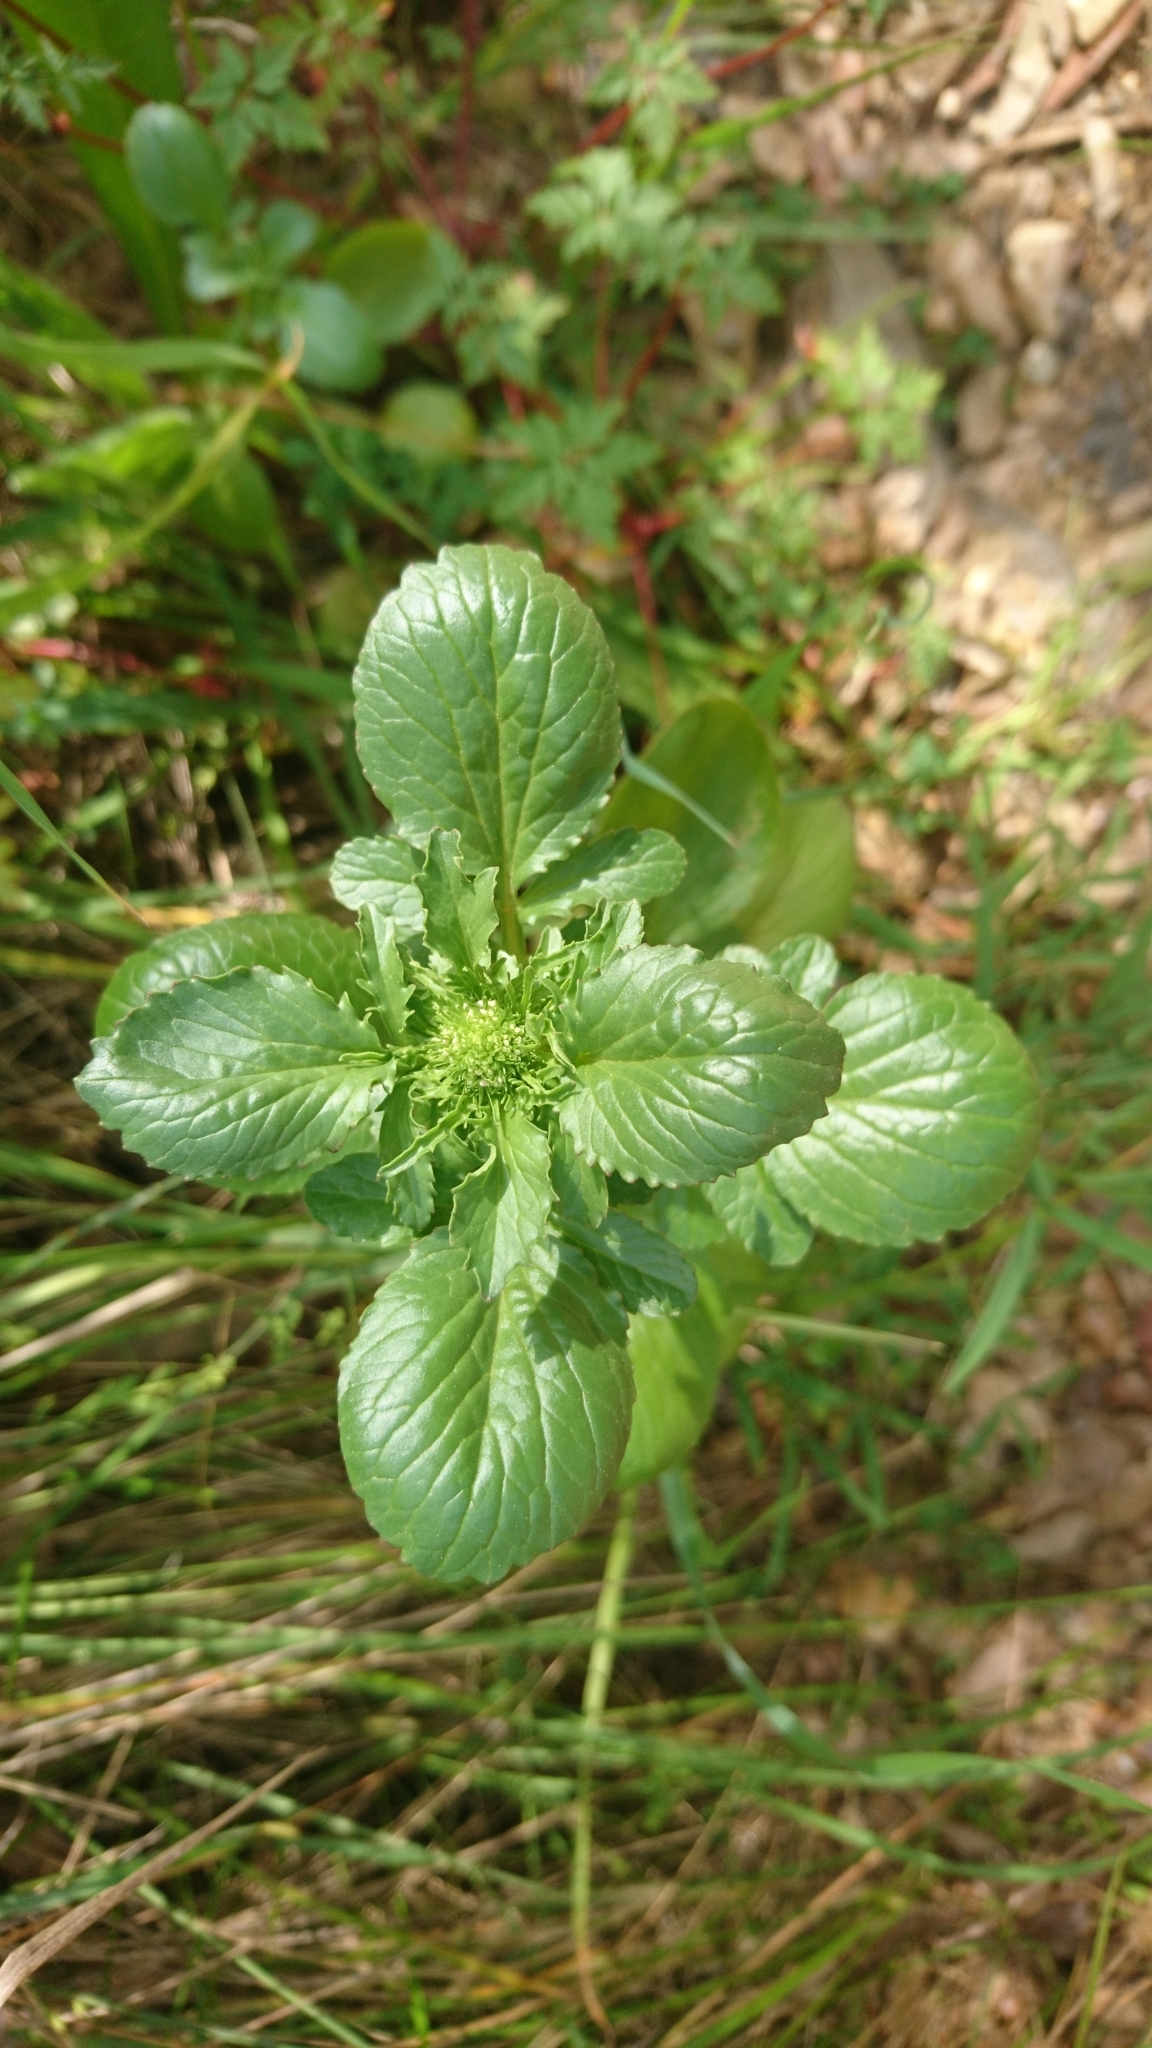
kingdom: Plantae
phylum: Tracheophyta
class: Magnoliopsida
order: Dipsacales
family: Caprifoliaceae
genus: Centranthus
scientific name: Centranthus calcitrapae
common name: Annual valerian
